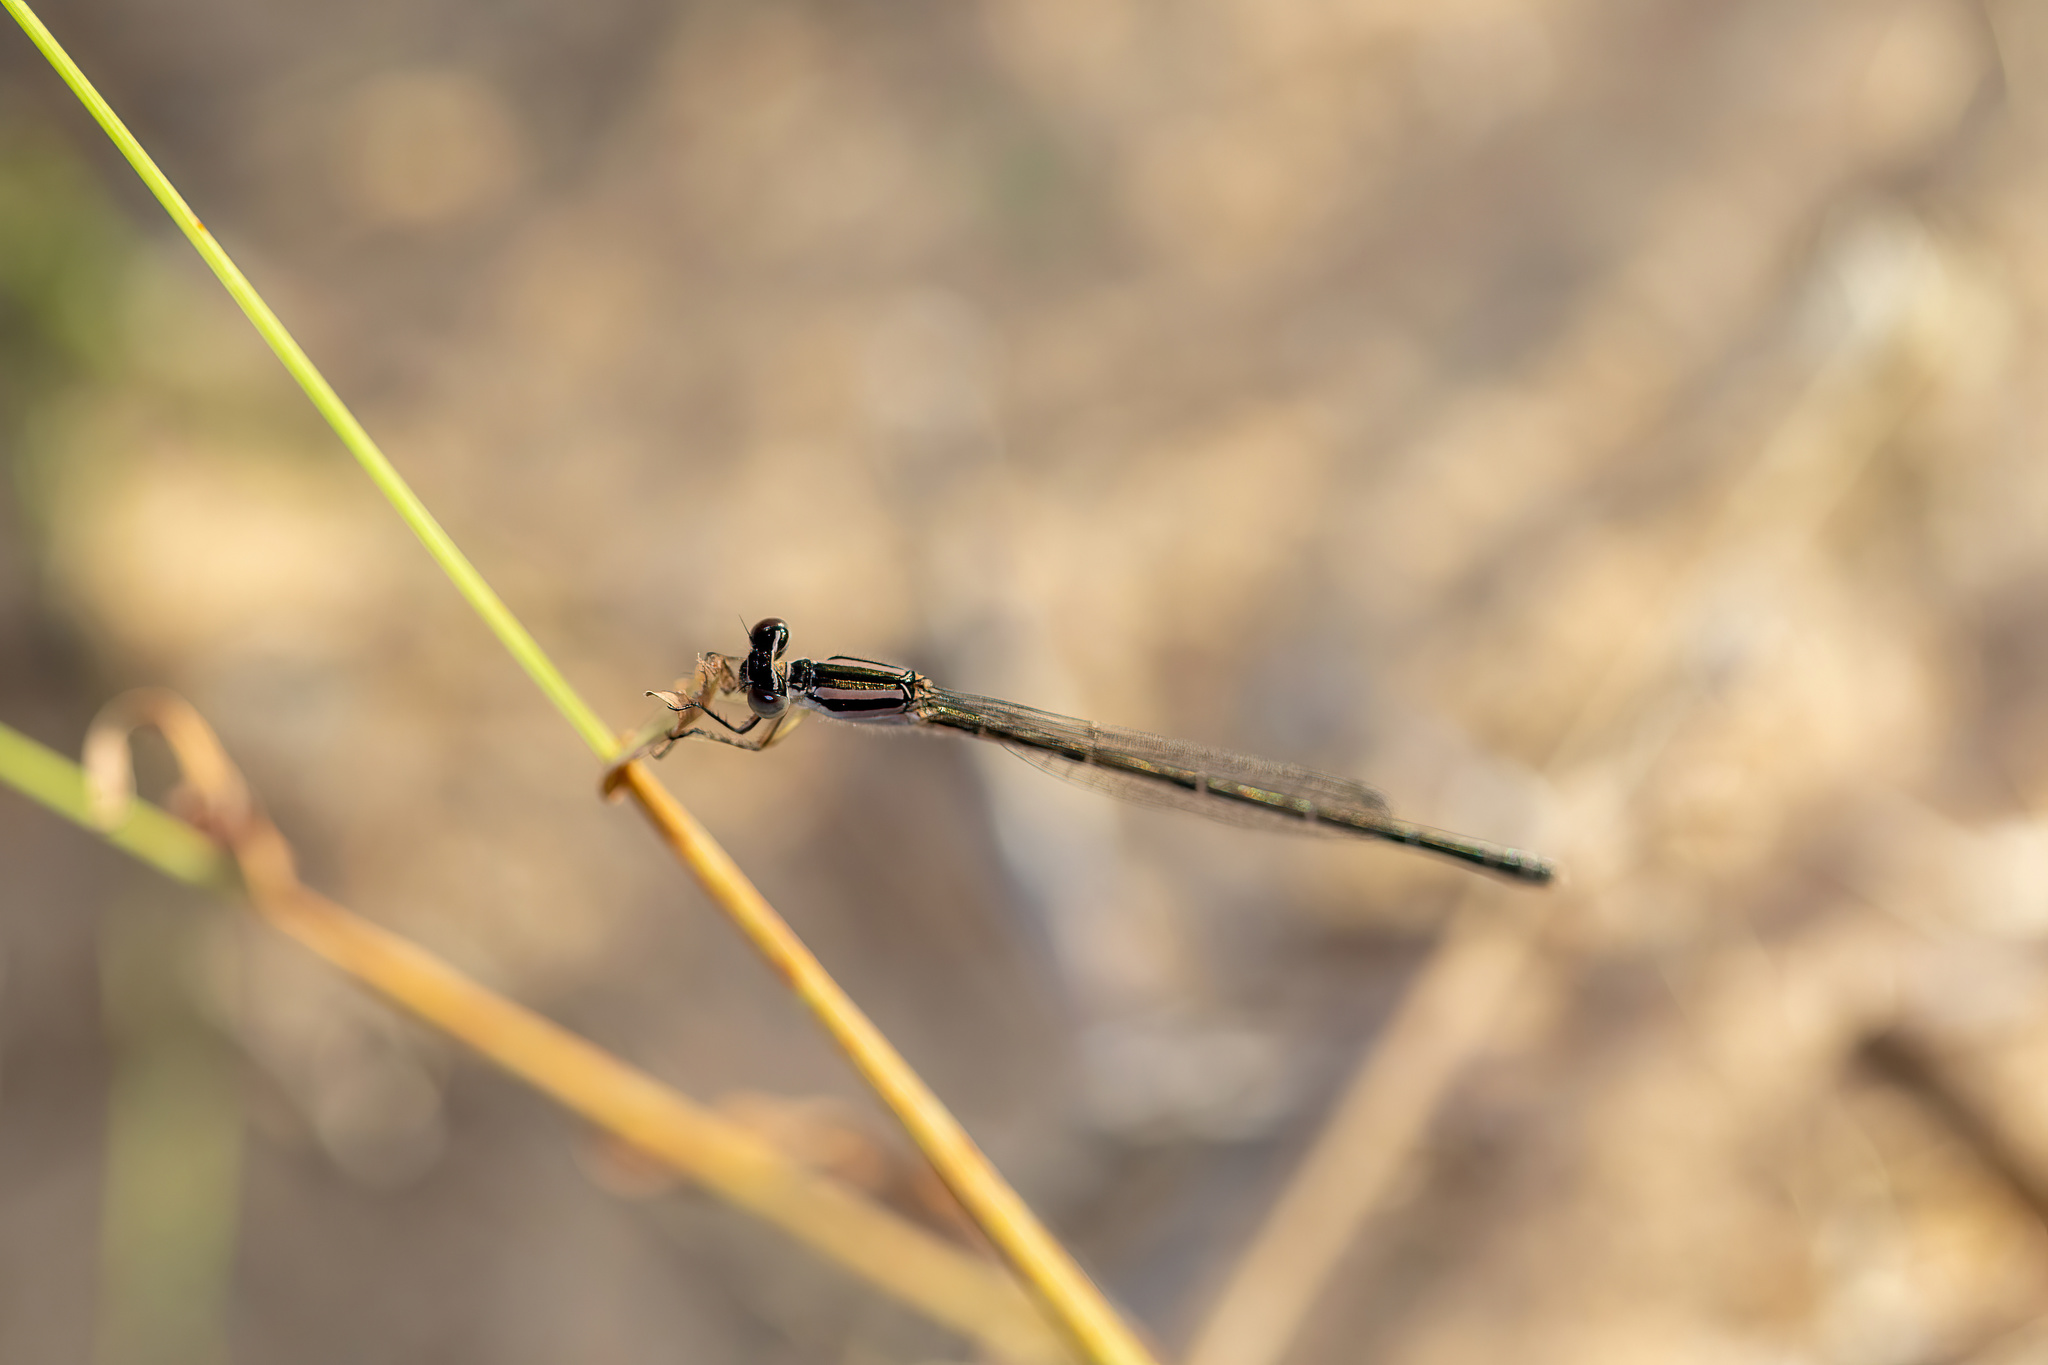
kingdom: Animalia
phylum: Arthropoda
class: Insecta
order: Odonata
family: Coenagrionidae
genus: Enallagma
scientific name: Enallagma doubledayi
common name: Atlantic bluet
